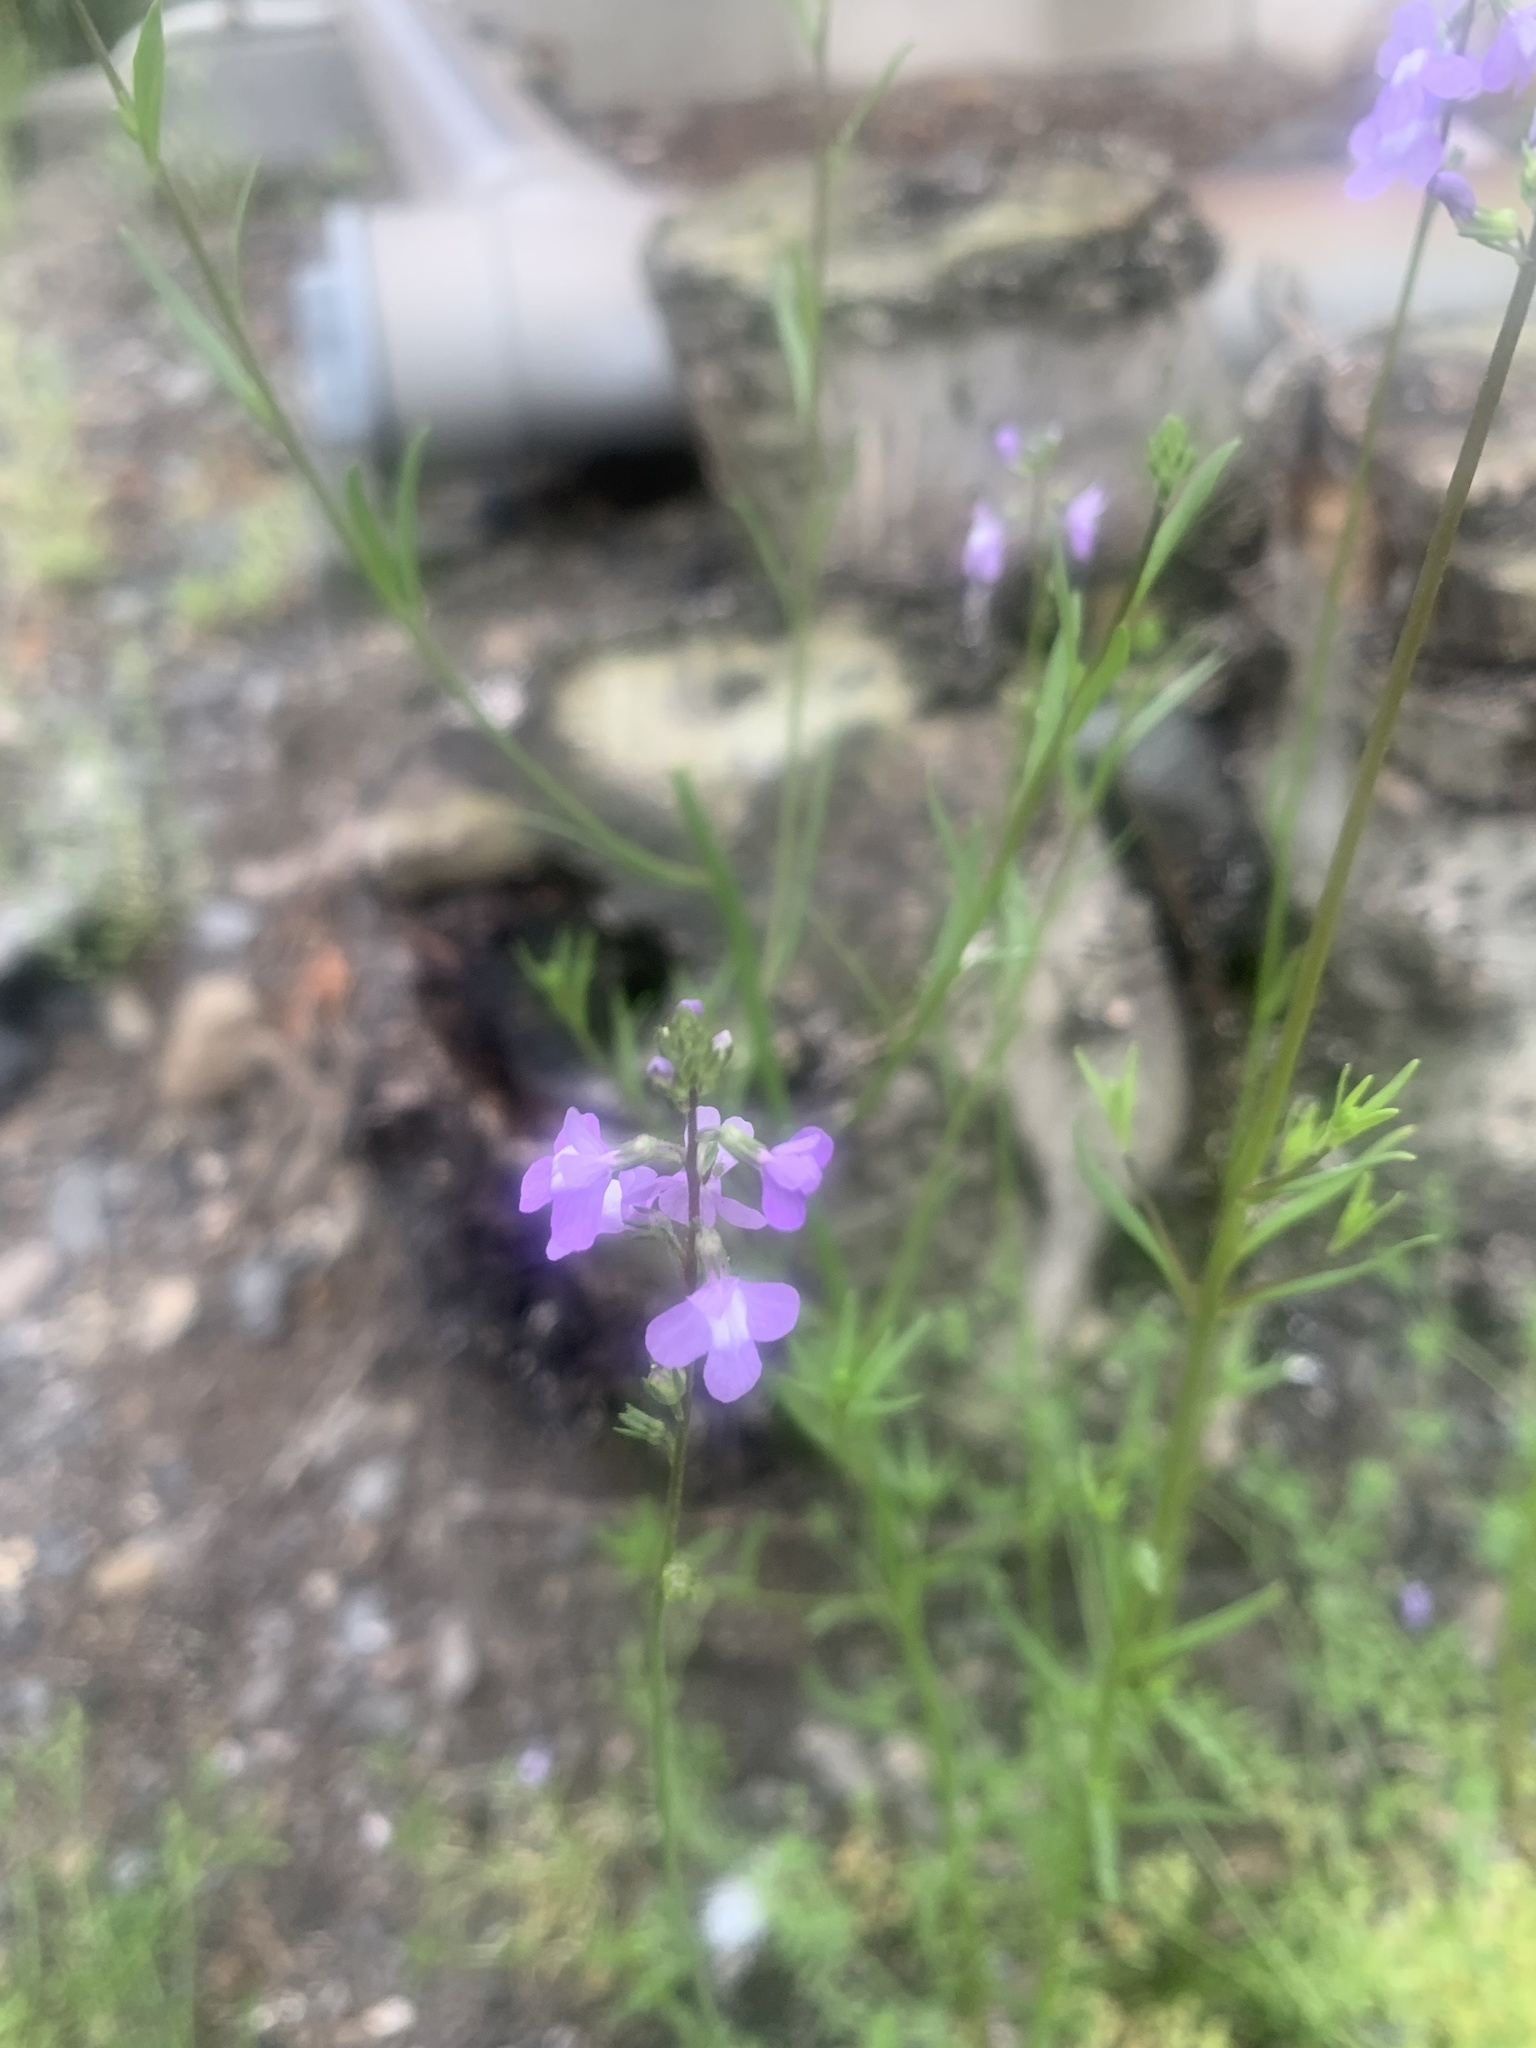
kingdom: Plantae
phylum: Tracheophyta
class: Magnoliopsida
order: Lamiales
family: Plantaginaceae
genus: Nuttallanthus
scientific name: Nuttallanthus canadensis
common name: Blue toadflax
